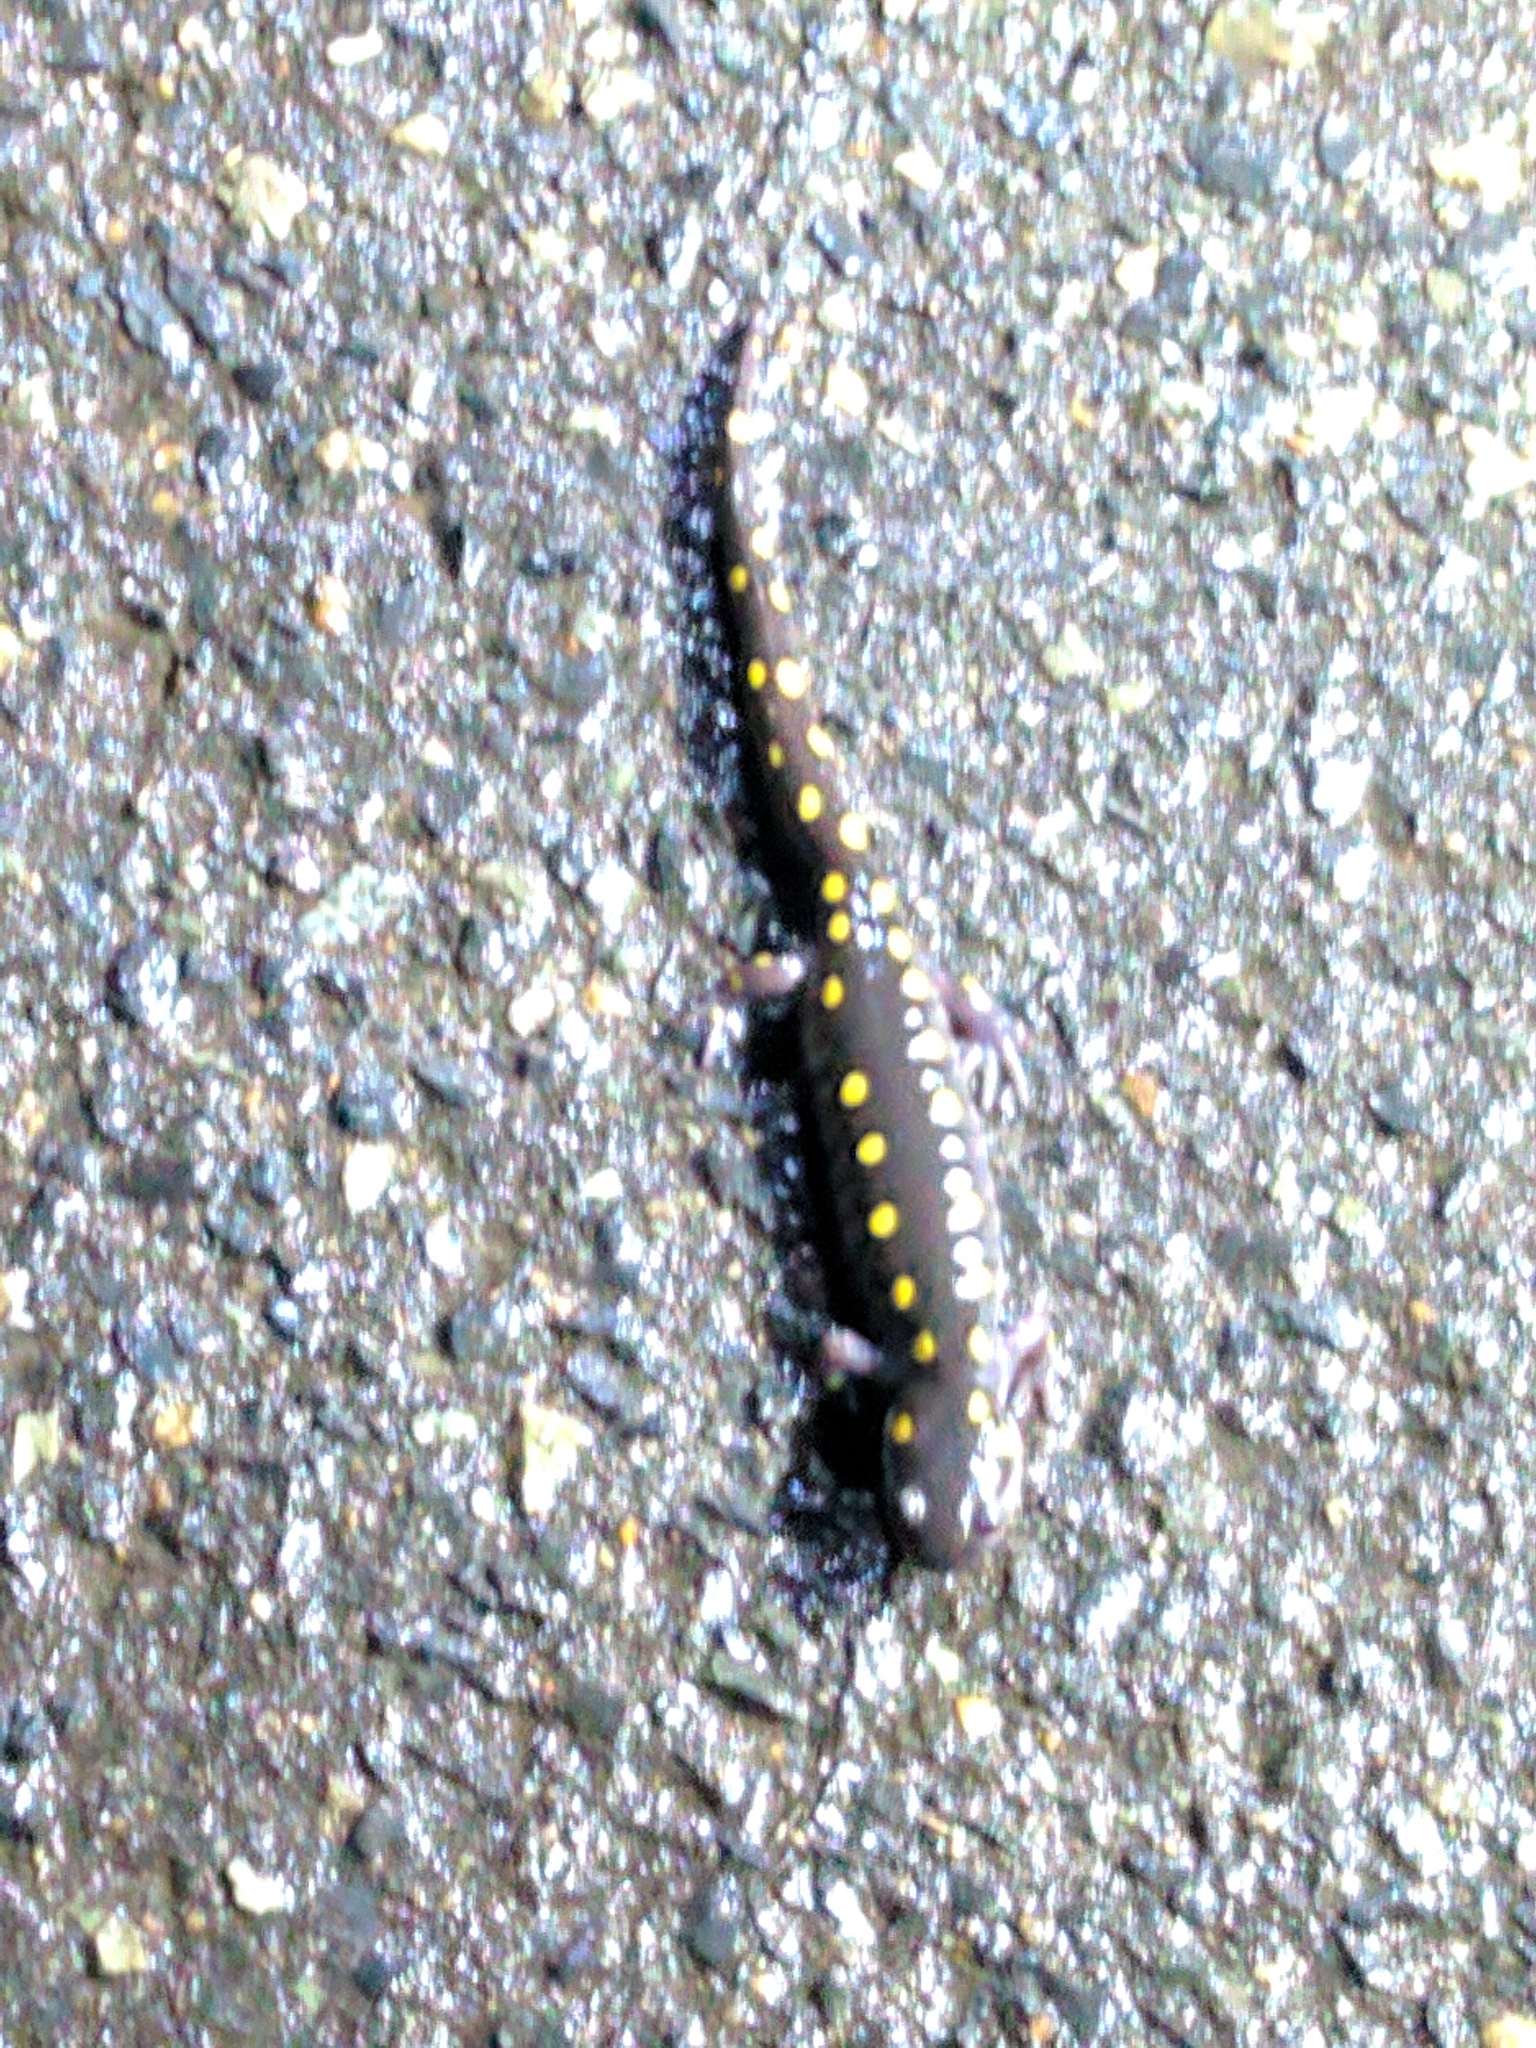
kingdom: Animalia
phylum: Chordata
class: Amphibia
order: Caudata
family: Ambystomatidae
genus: Ambystoma
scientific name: Ambystoma maculatum
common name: Spotted salamander
